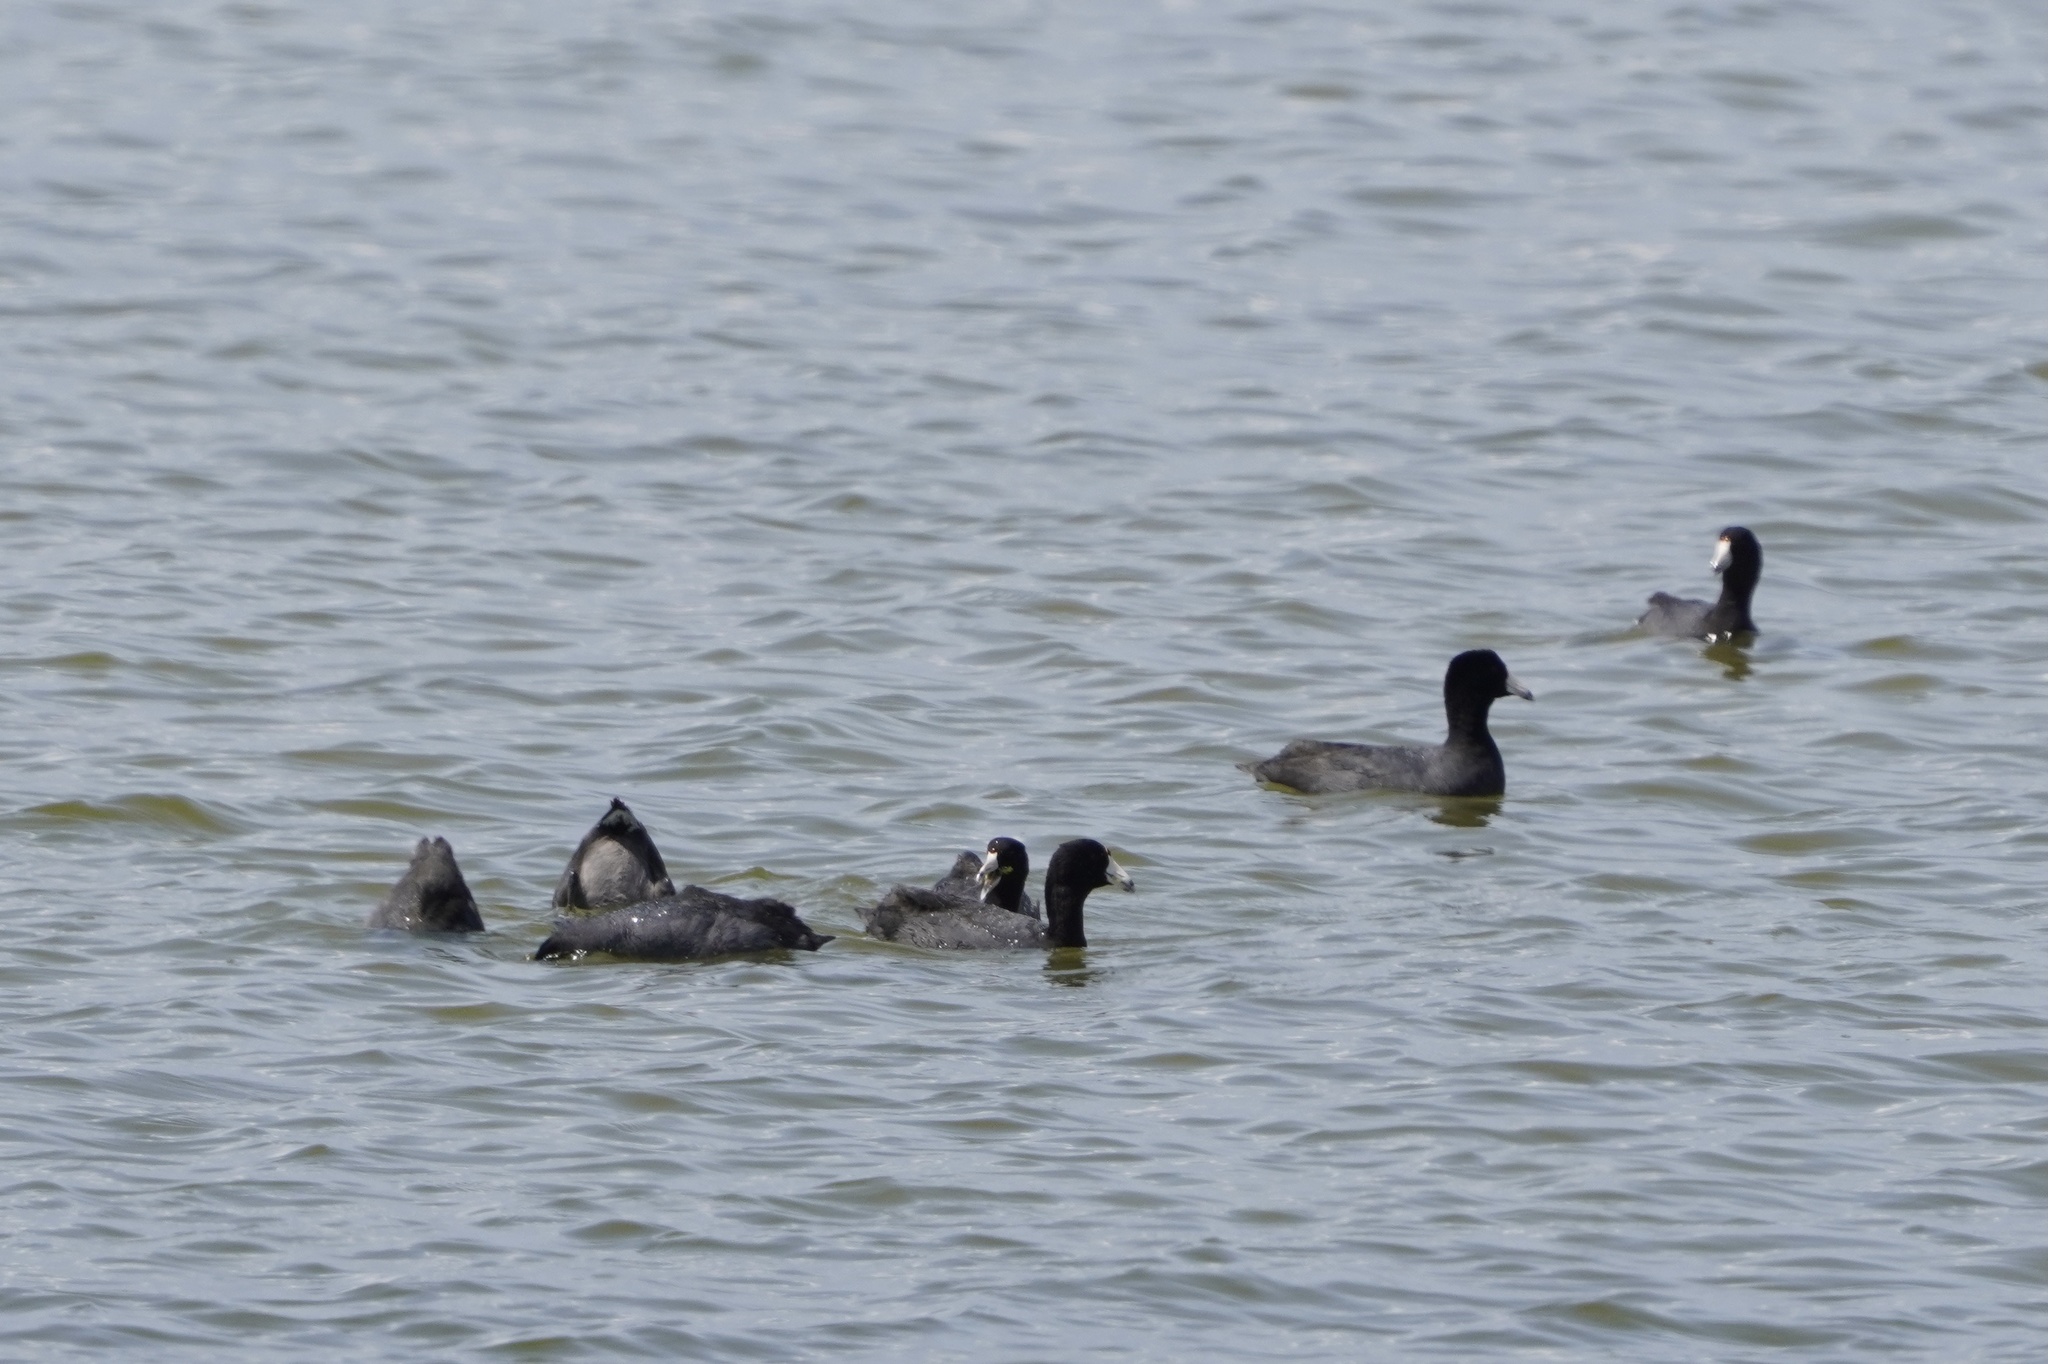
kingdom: Animalia
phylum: Chordata
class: Aves
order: Gruiformes
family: Rallidae
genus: Fulica
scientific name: Fulica americana
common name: American coot
